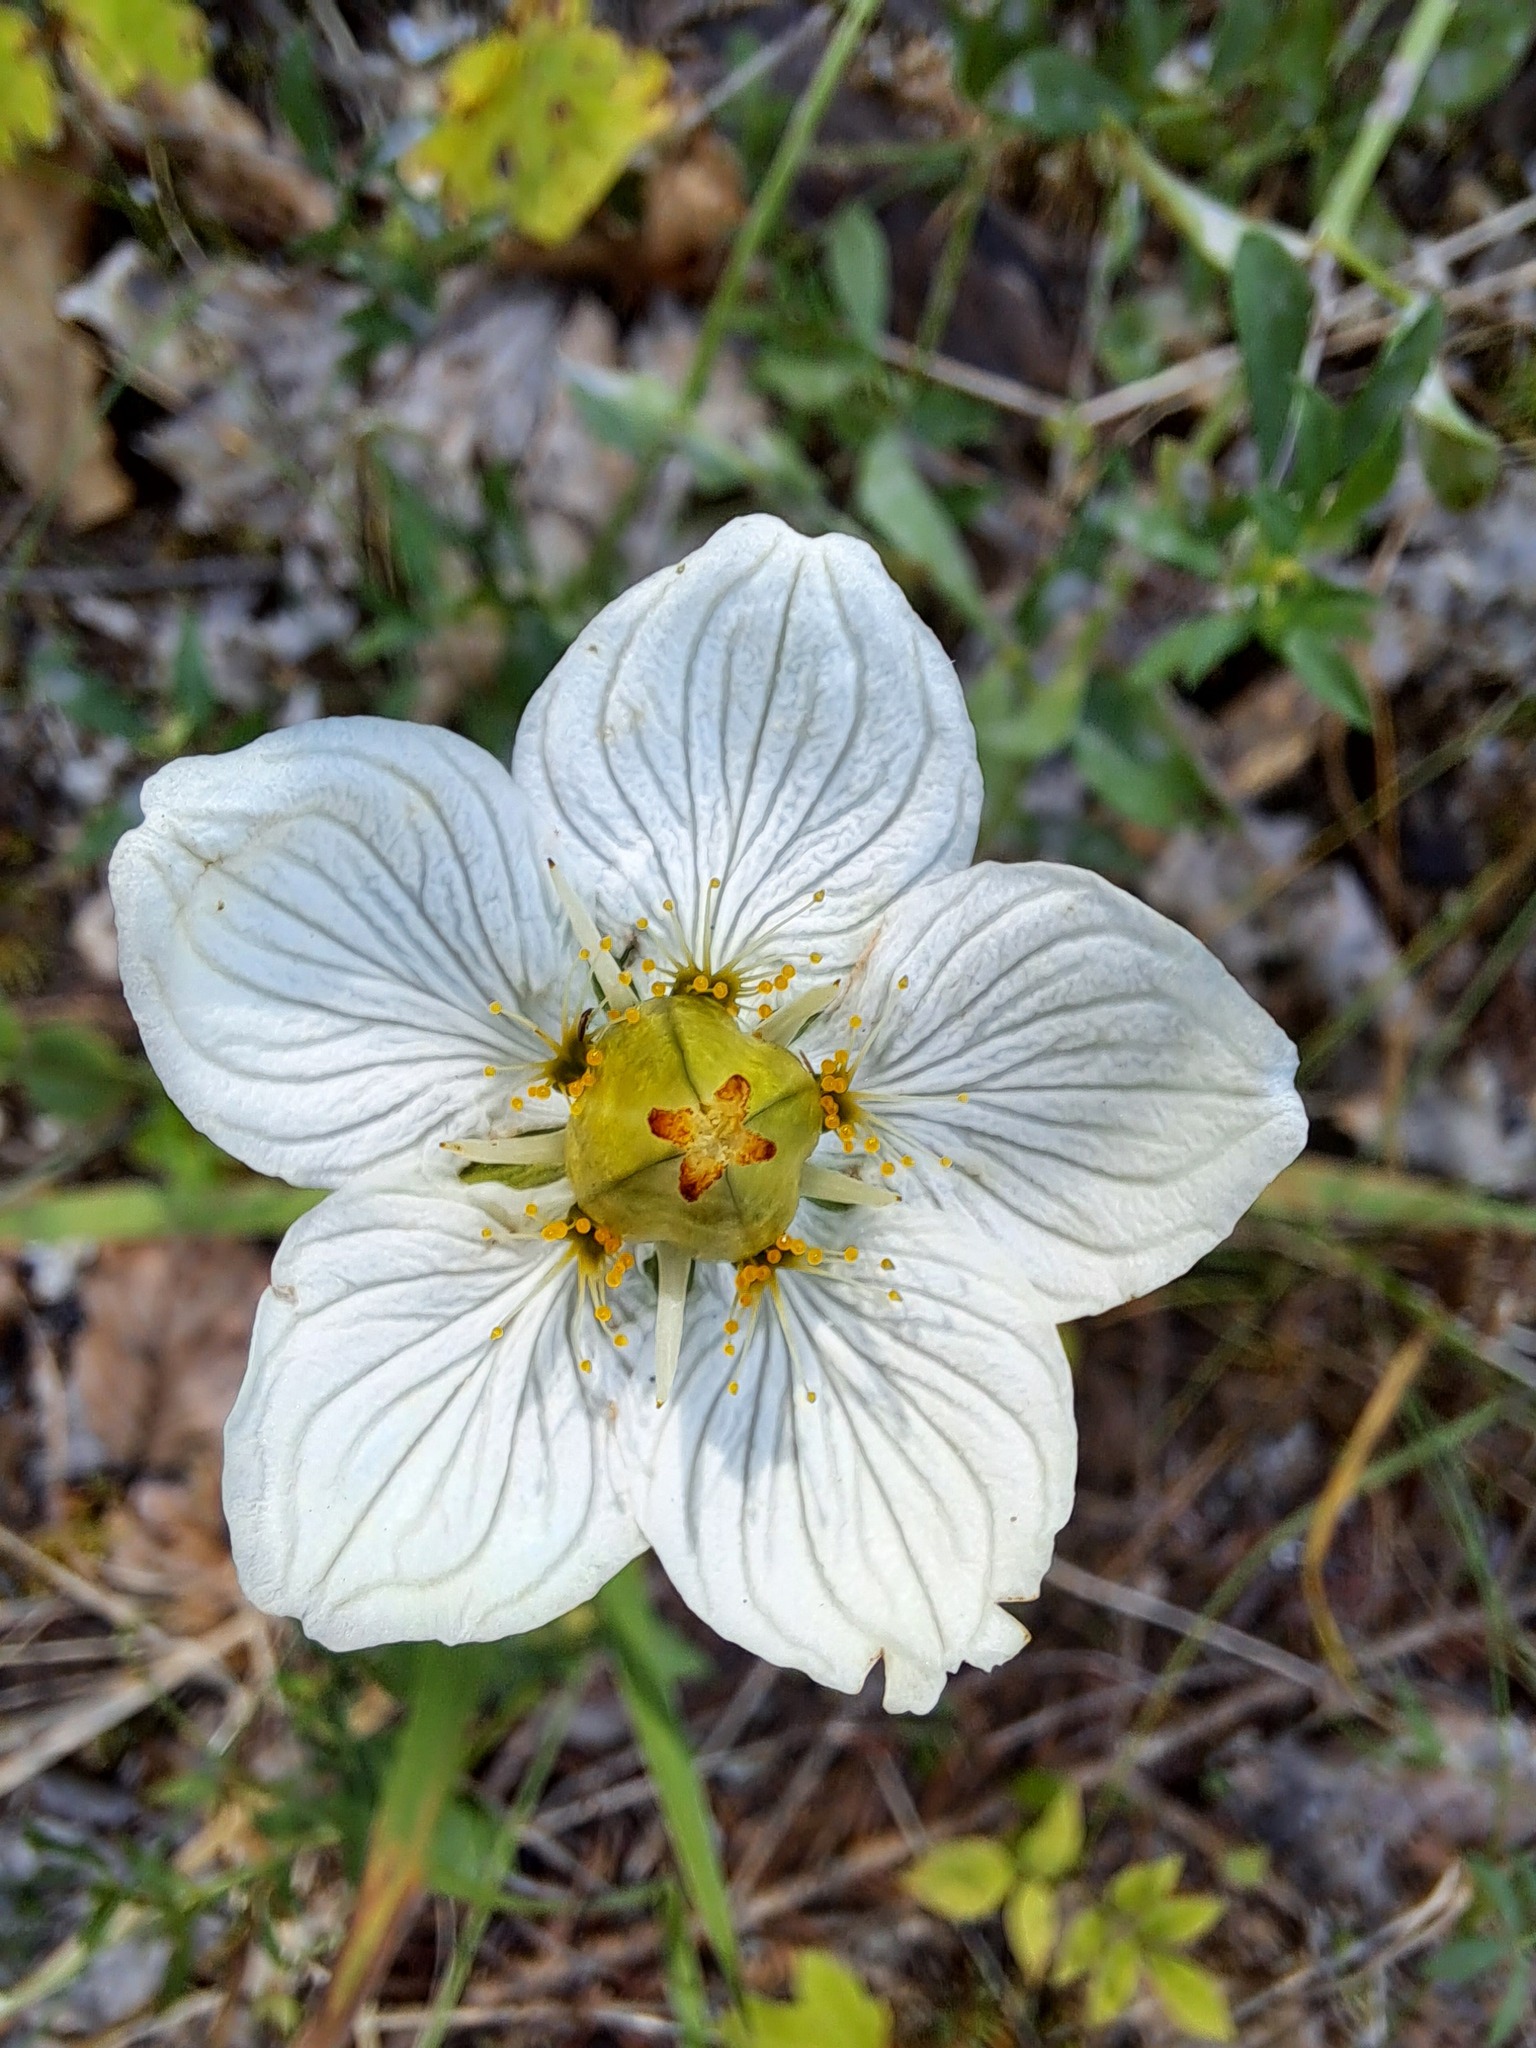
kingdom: Plantae
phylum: Tracheophyta
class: Magnoliopsida
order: Celastrales
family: Parnassiaceae
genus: Parnassia
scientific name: Parnassia palustris
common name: Grass-of-parnassus
